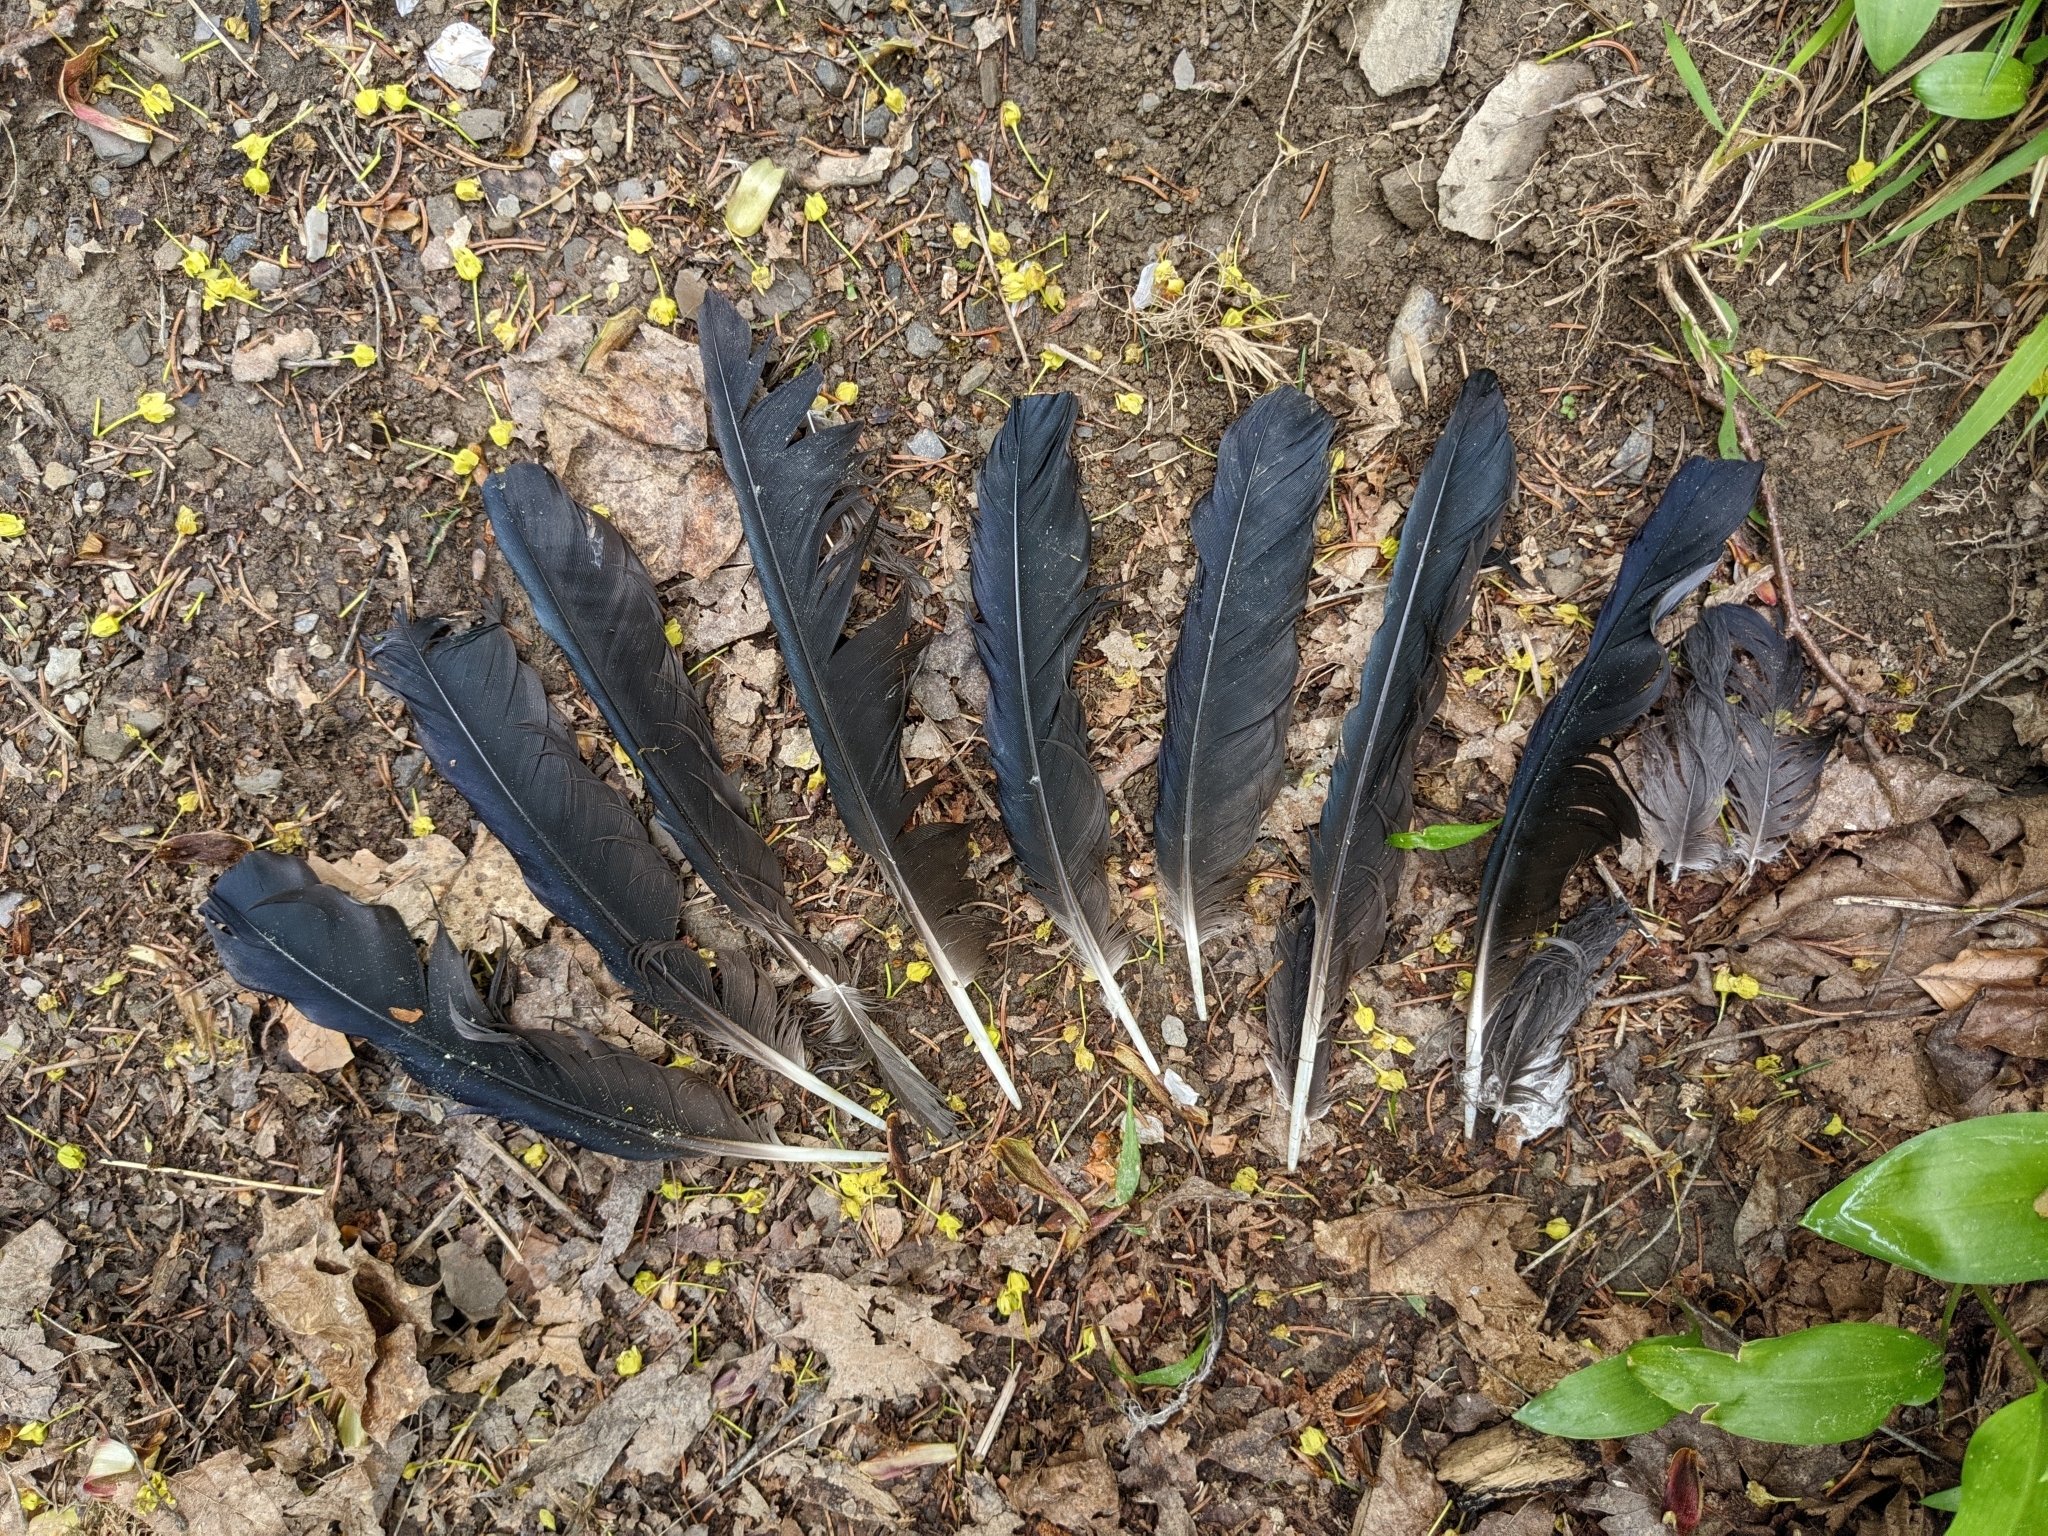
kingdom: Animalia
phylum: Chordata
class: Aves
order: Passeriformes
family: Corvidae
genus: Corvus
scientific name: Corvus corone
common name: Carrion crow
